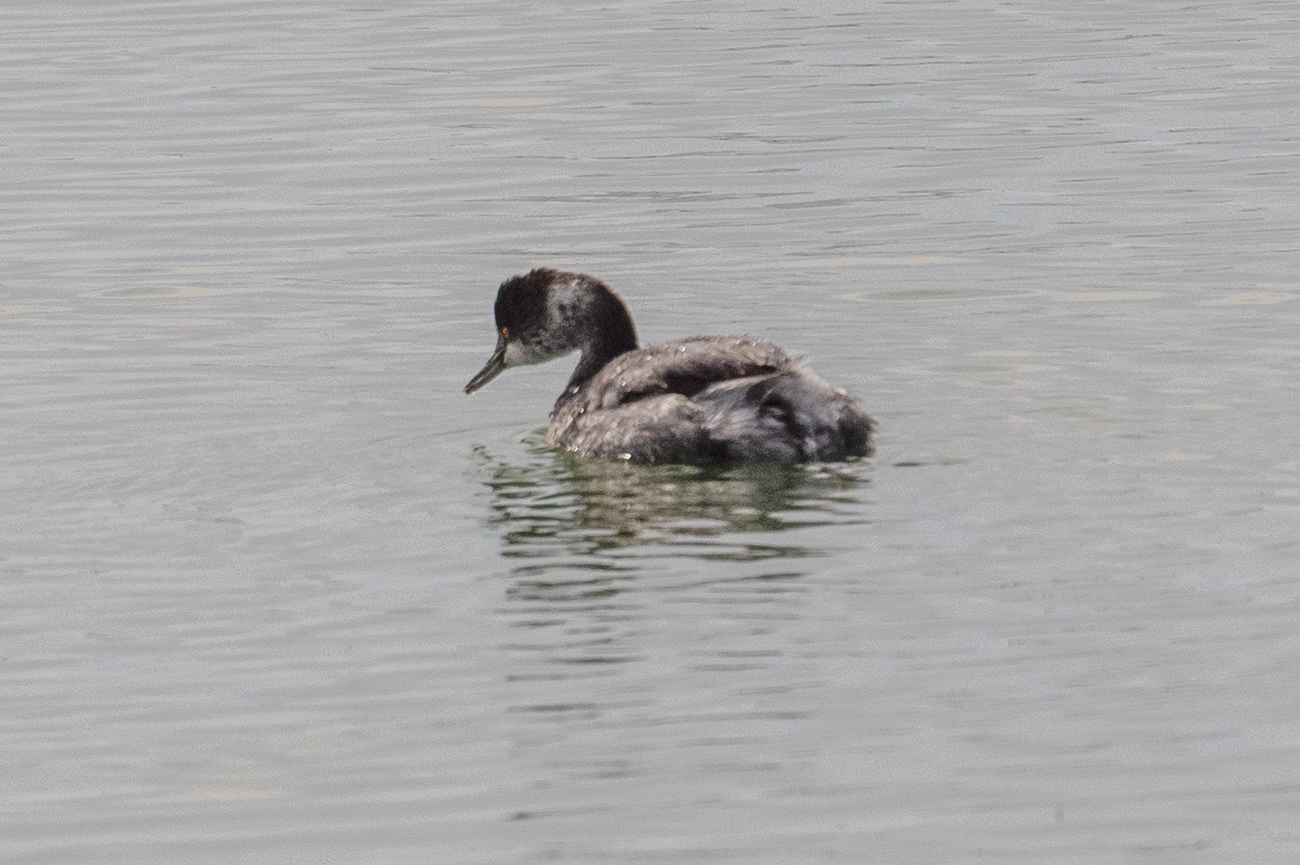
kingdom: Animalia
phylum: Chordata
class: Aves
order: Podicipediformes
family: Podicipedidae
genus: Podiceps
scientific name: Podiceps nigricollis
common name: Black-necked grebe
